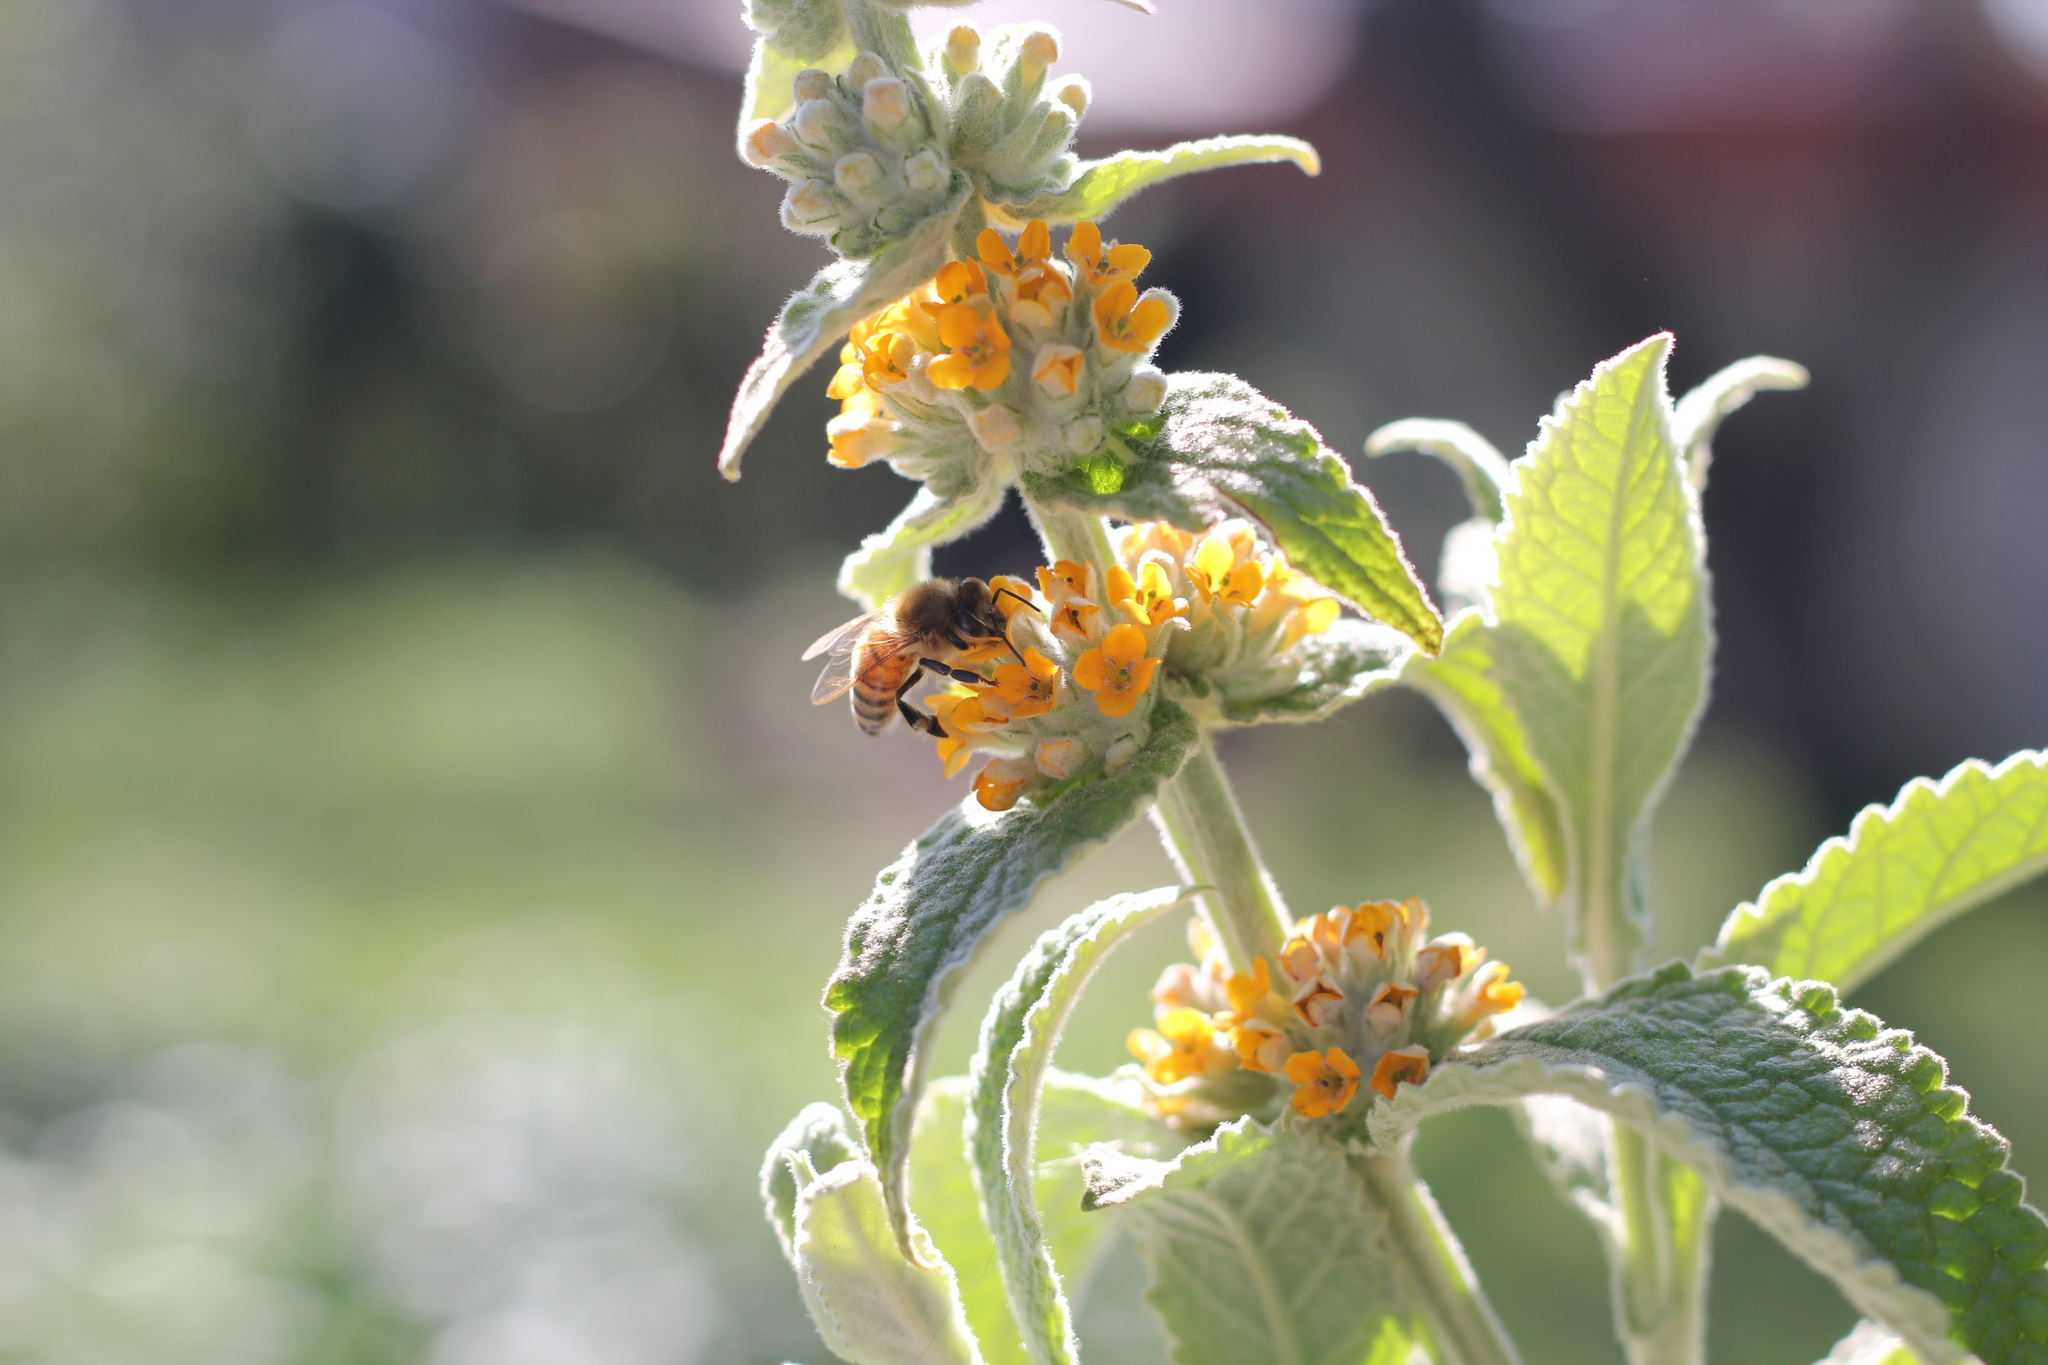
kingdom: Animalia
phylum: Arthropoda
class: Insecta
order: Hymenoptera
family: Apidae
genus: Apis
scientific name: Apis mellifera
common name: Honey bee
